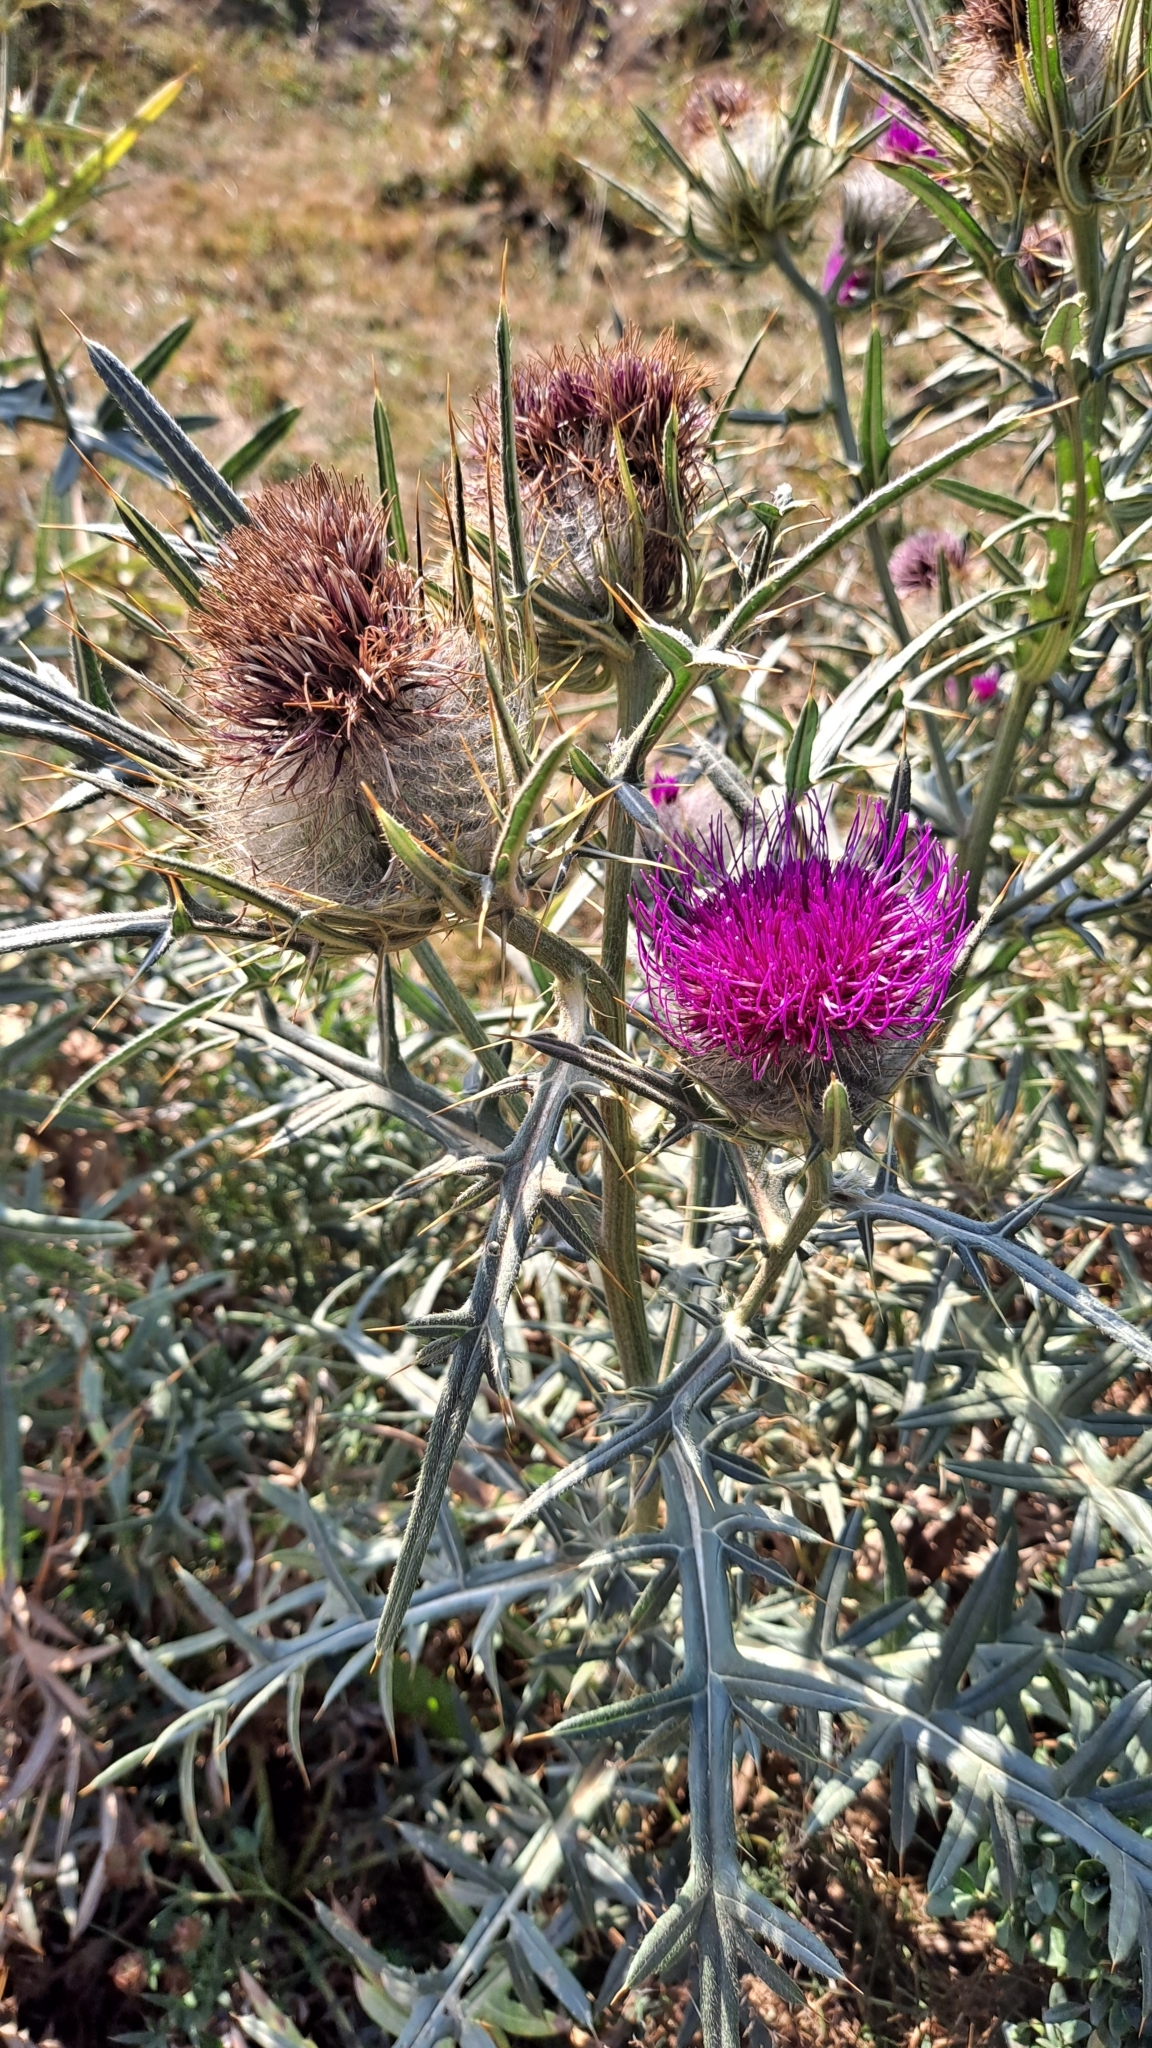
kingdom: Plantae
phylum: Tracheophyta
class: Magnoliopsida
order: Asterales
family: Asteraceae
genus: Lophiolepis
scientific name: Lophiolepis eriophora
